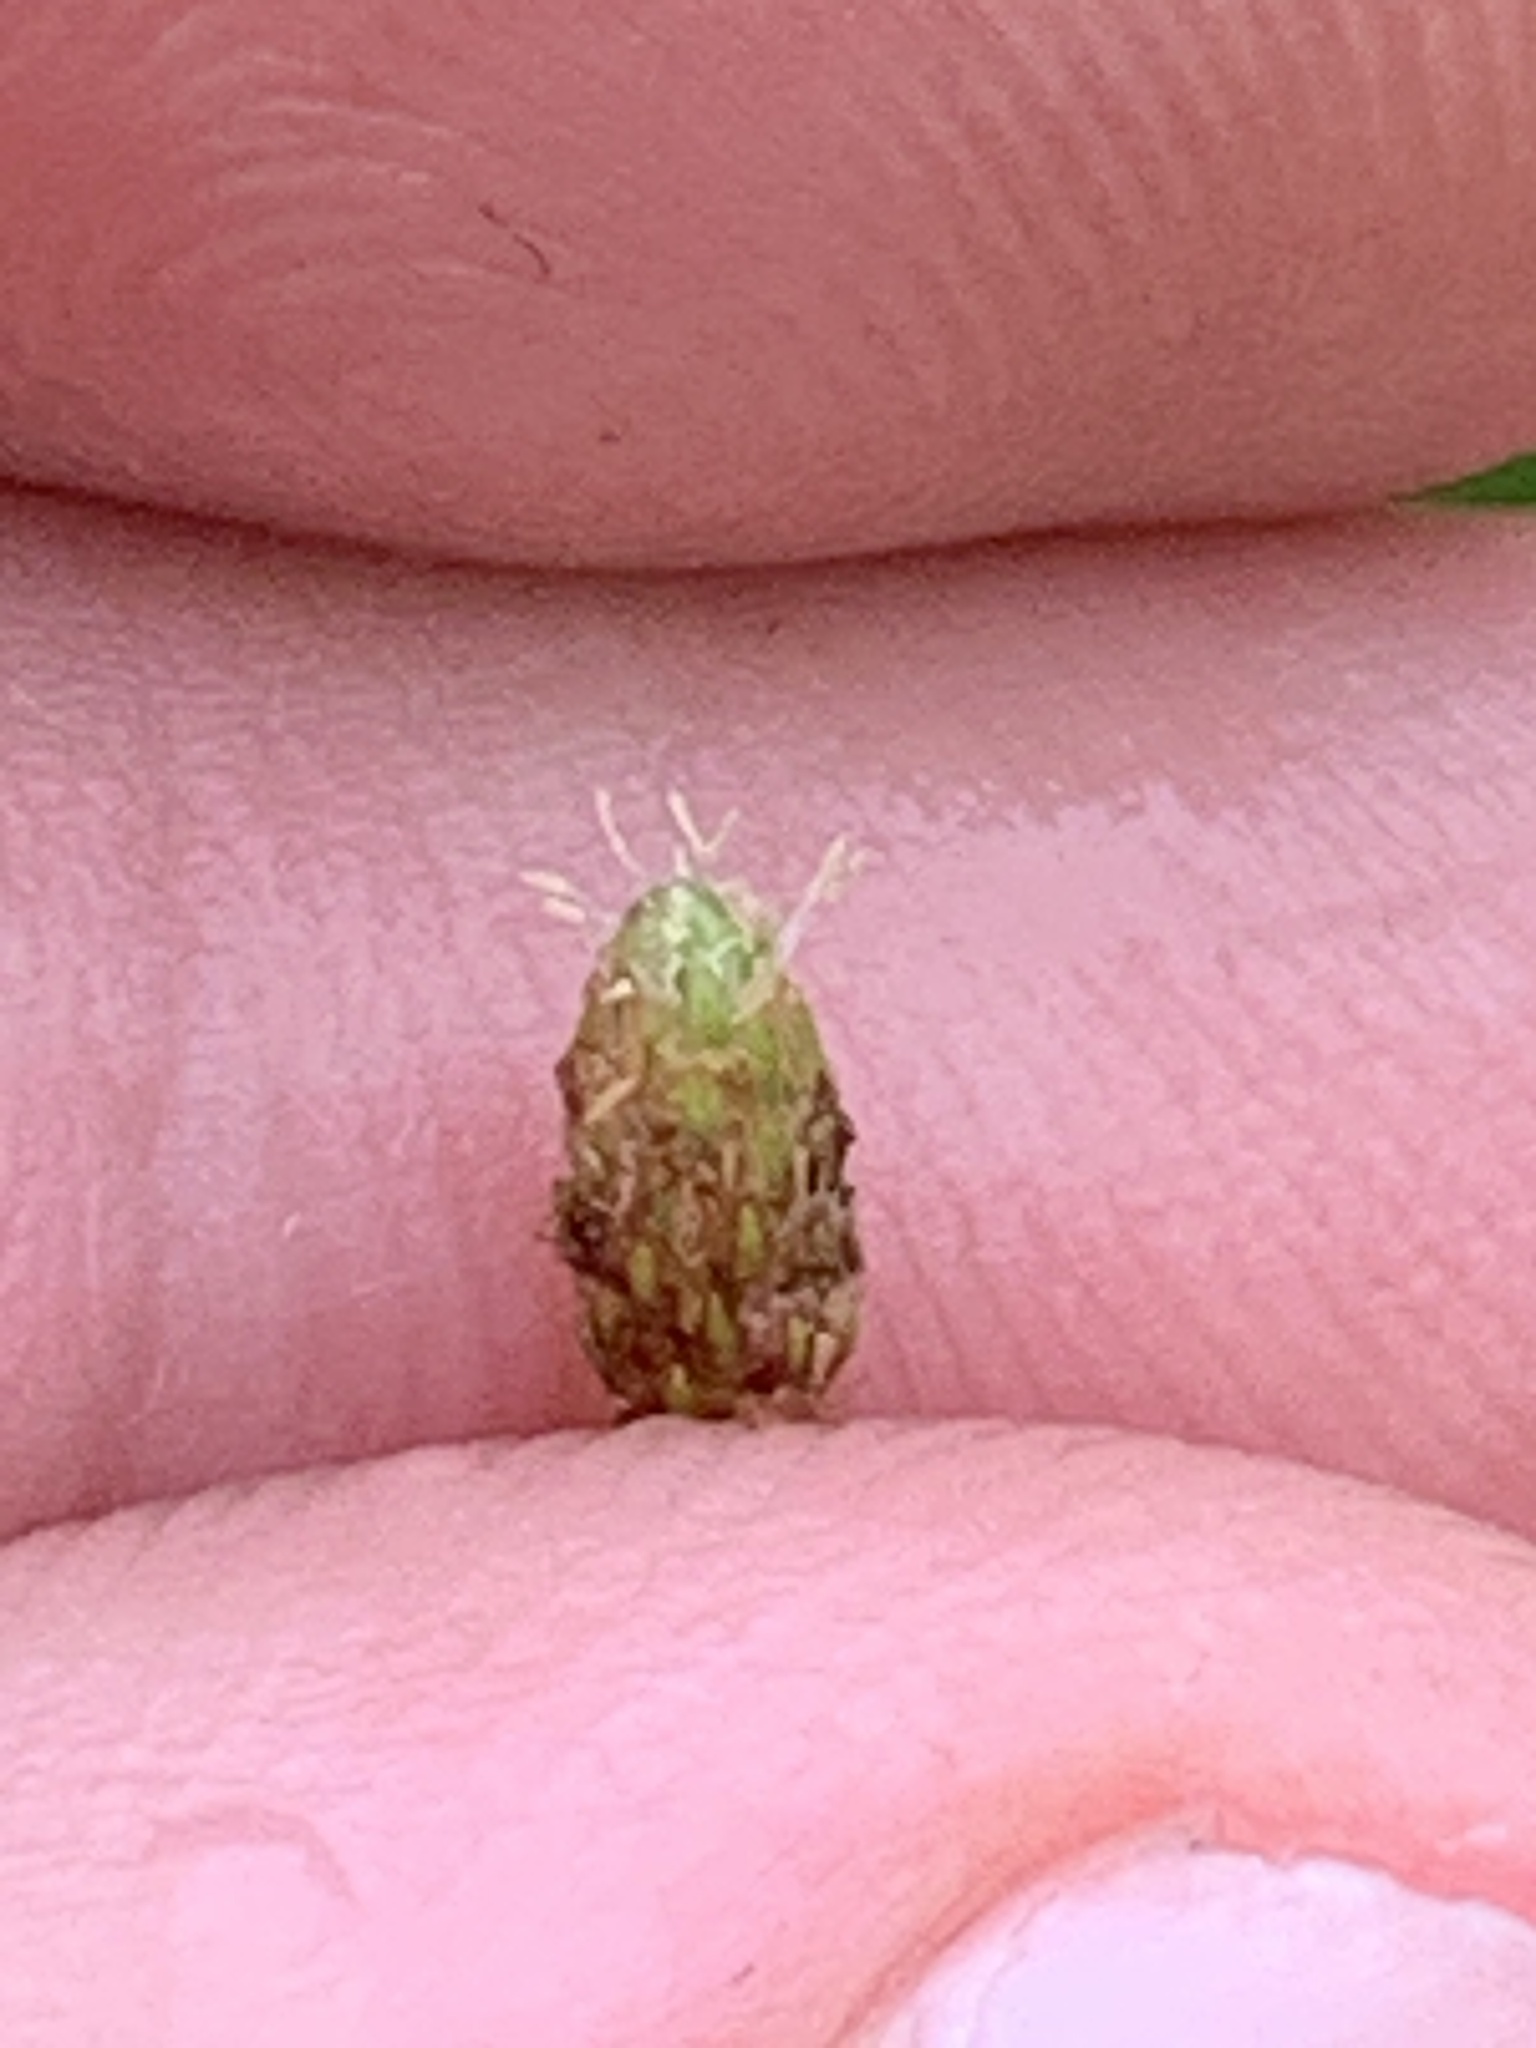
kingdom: Plantae
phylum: Tracheophyta
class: Liliopsida
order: Poales
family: Cyperaceae
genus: Eleocharis
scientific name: Eleocharis obtusa
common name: Blunt spikerush
